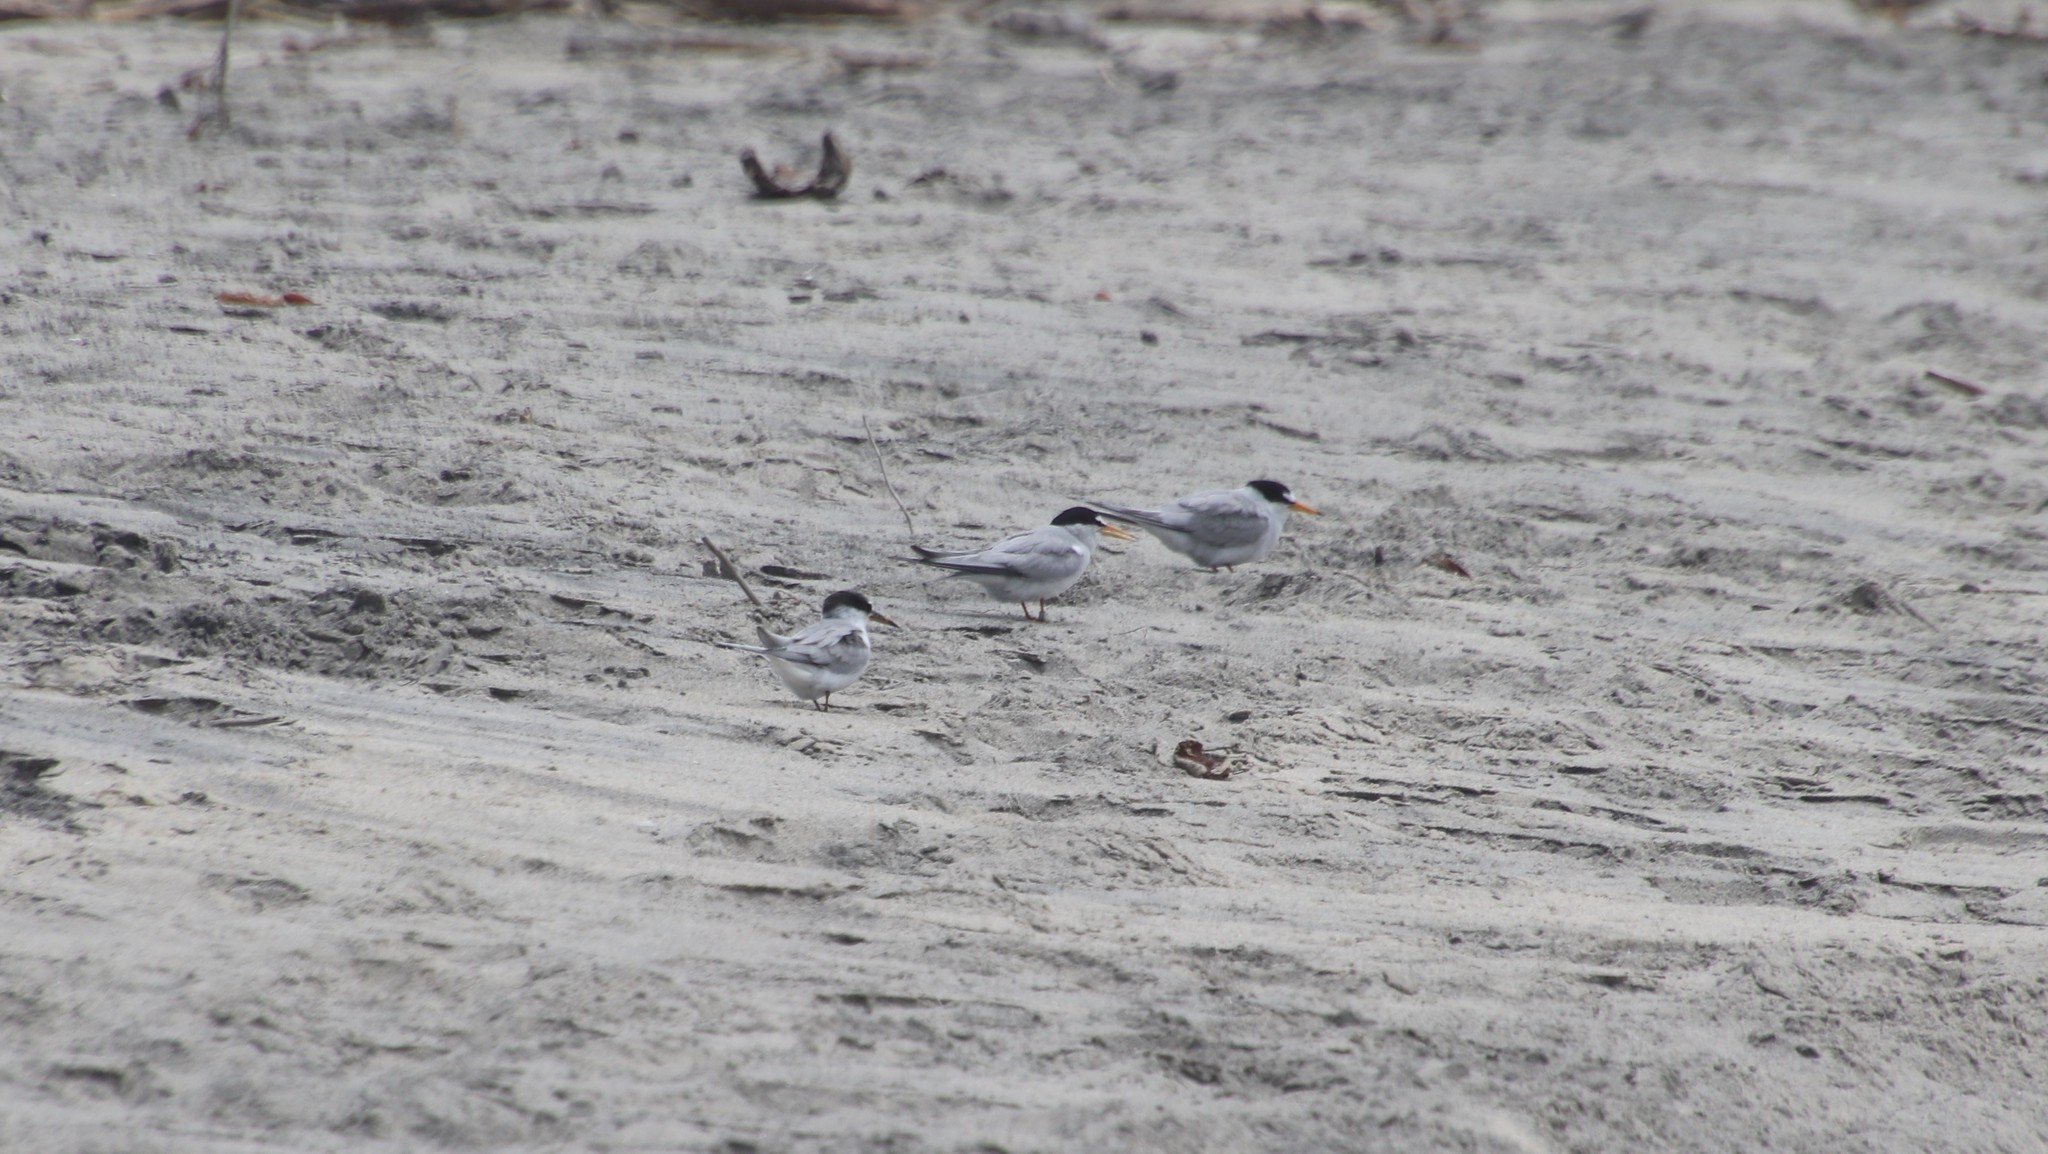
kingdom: Animalia
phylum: Chordata
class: Aves
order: Charadriiformes
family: Laridae
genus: Sternula
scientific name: Sternula antillarum
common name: Least tern
